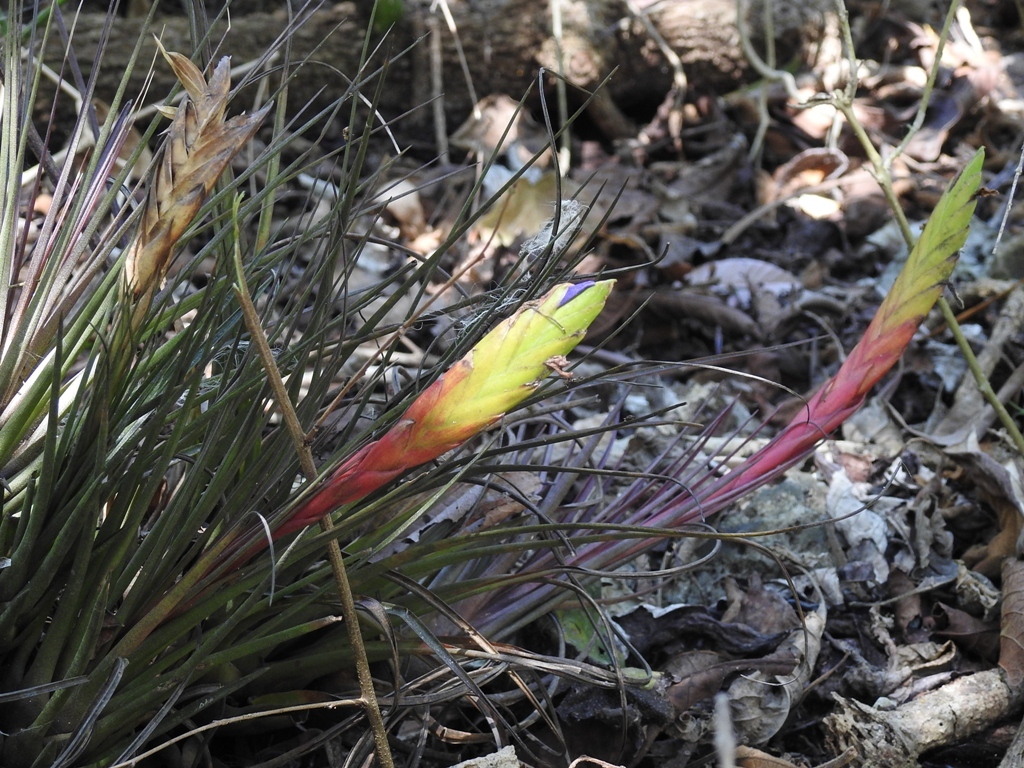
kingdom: Plantae
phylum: Tracheophyta
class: Liliopsida
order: Poales
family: Bromeliaceae
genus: Tillandsia
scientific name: Tillandsia tricolor
